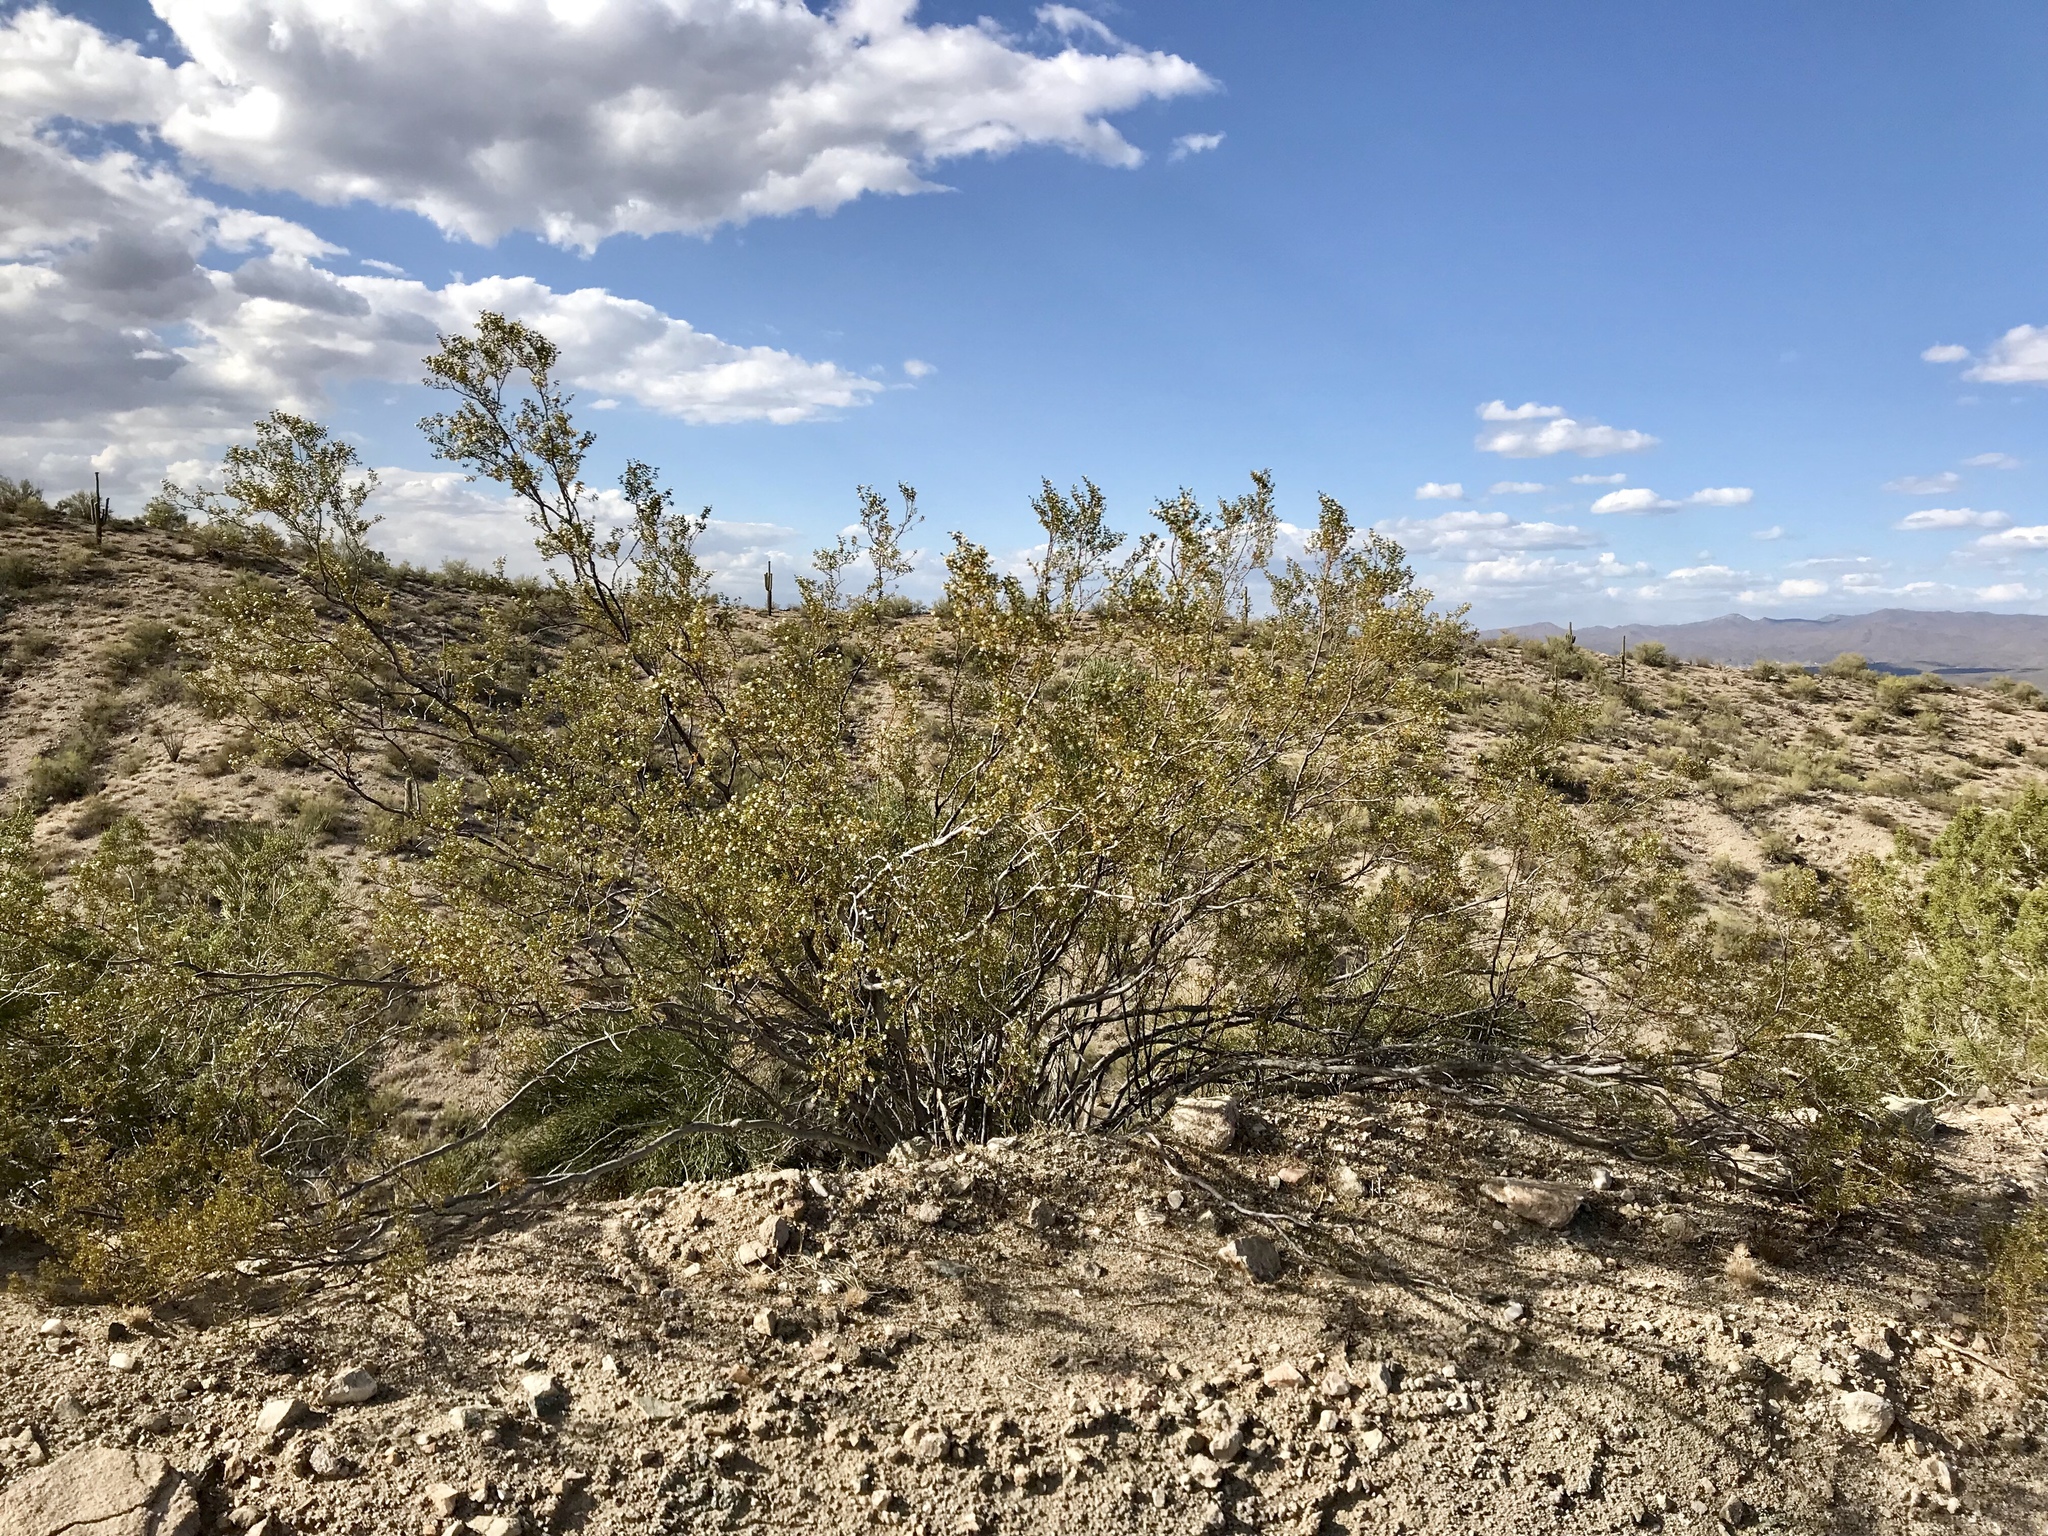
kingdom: Plantae
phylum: Tracheophyta
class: Magnoliopsida
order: Zygophyllales
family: Zygophyllaceae
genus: Larrea
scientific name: Larrea tridentata
